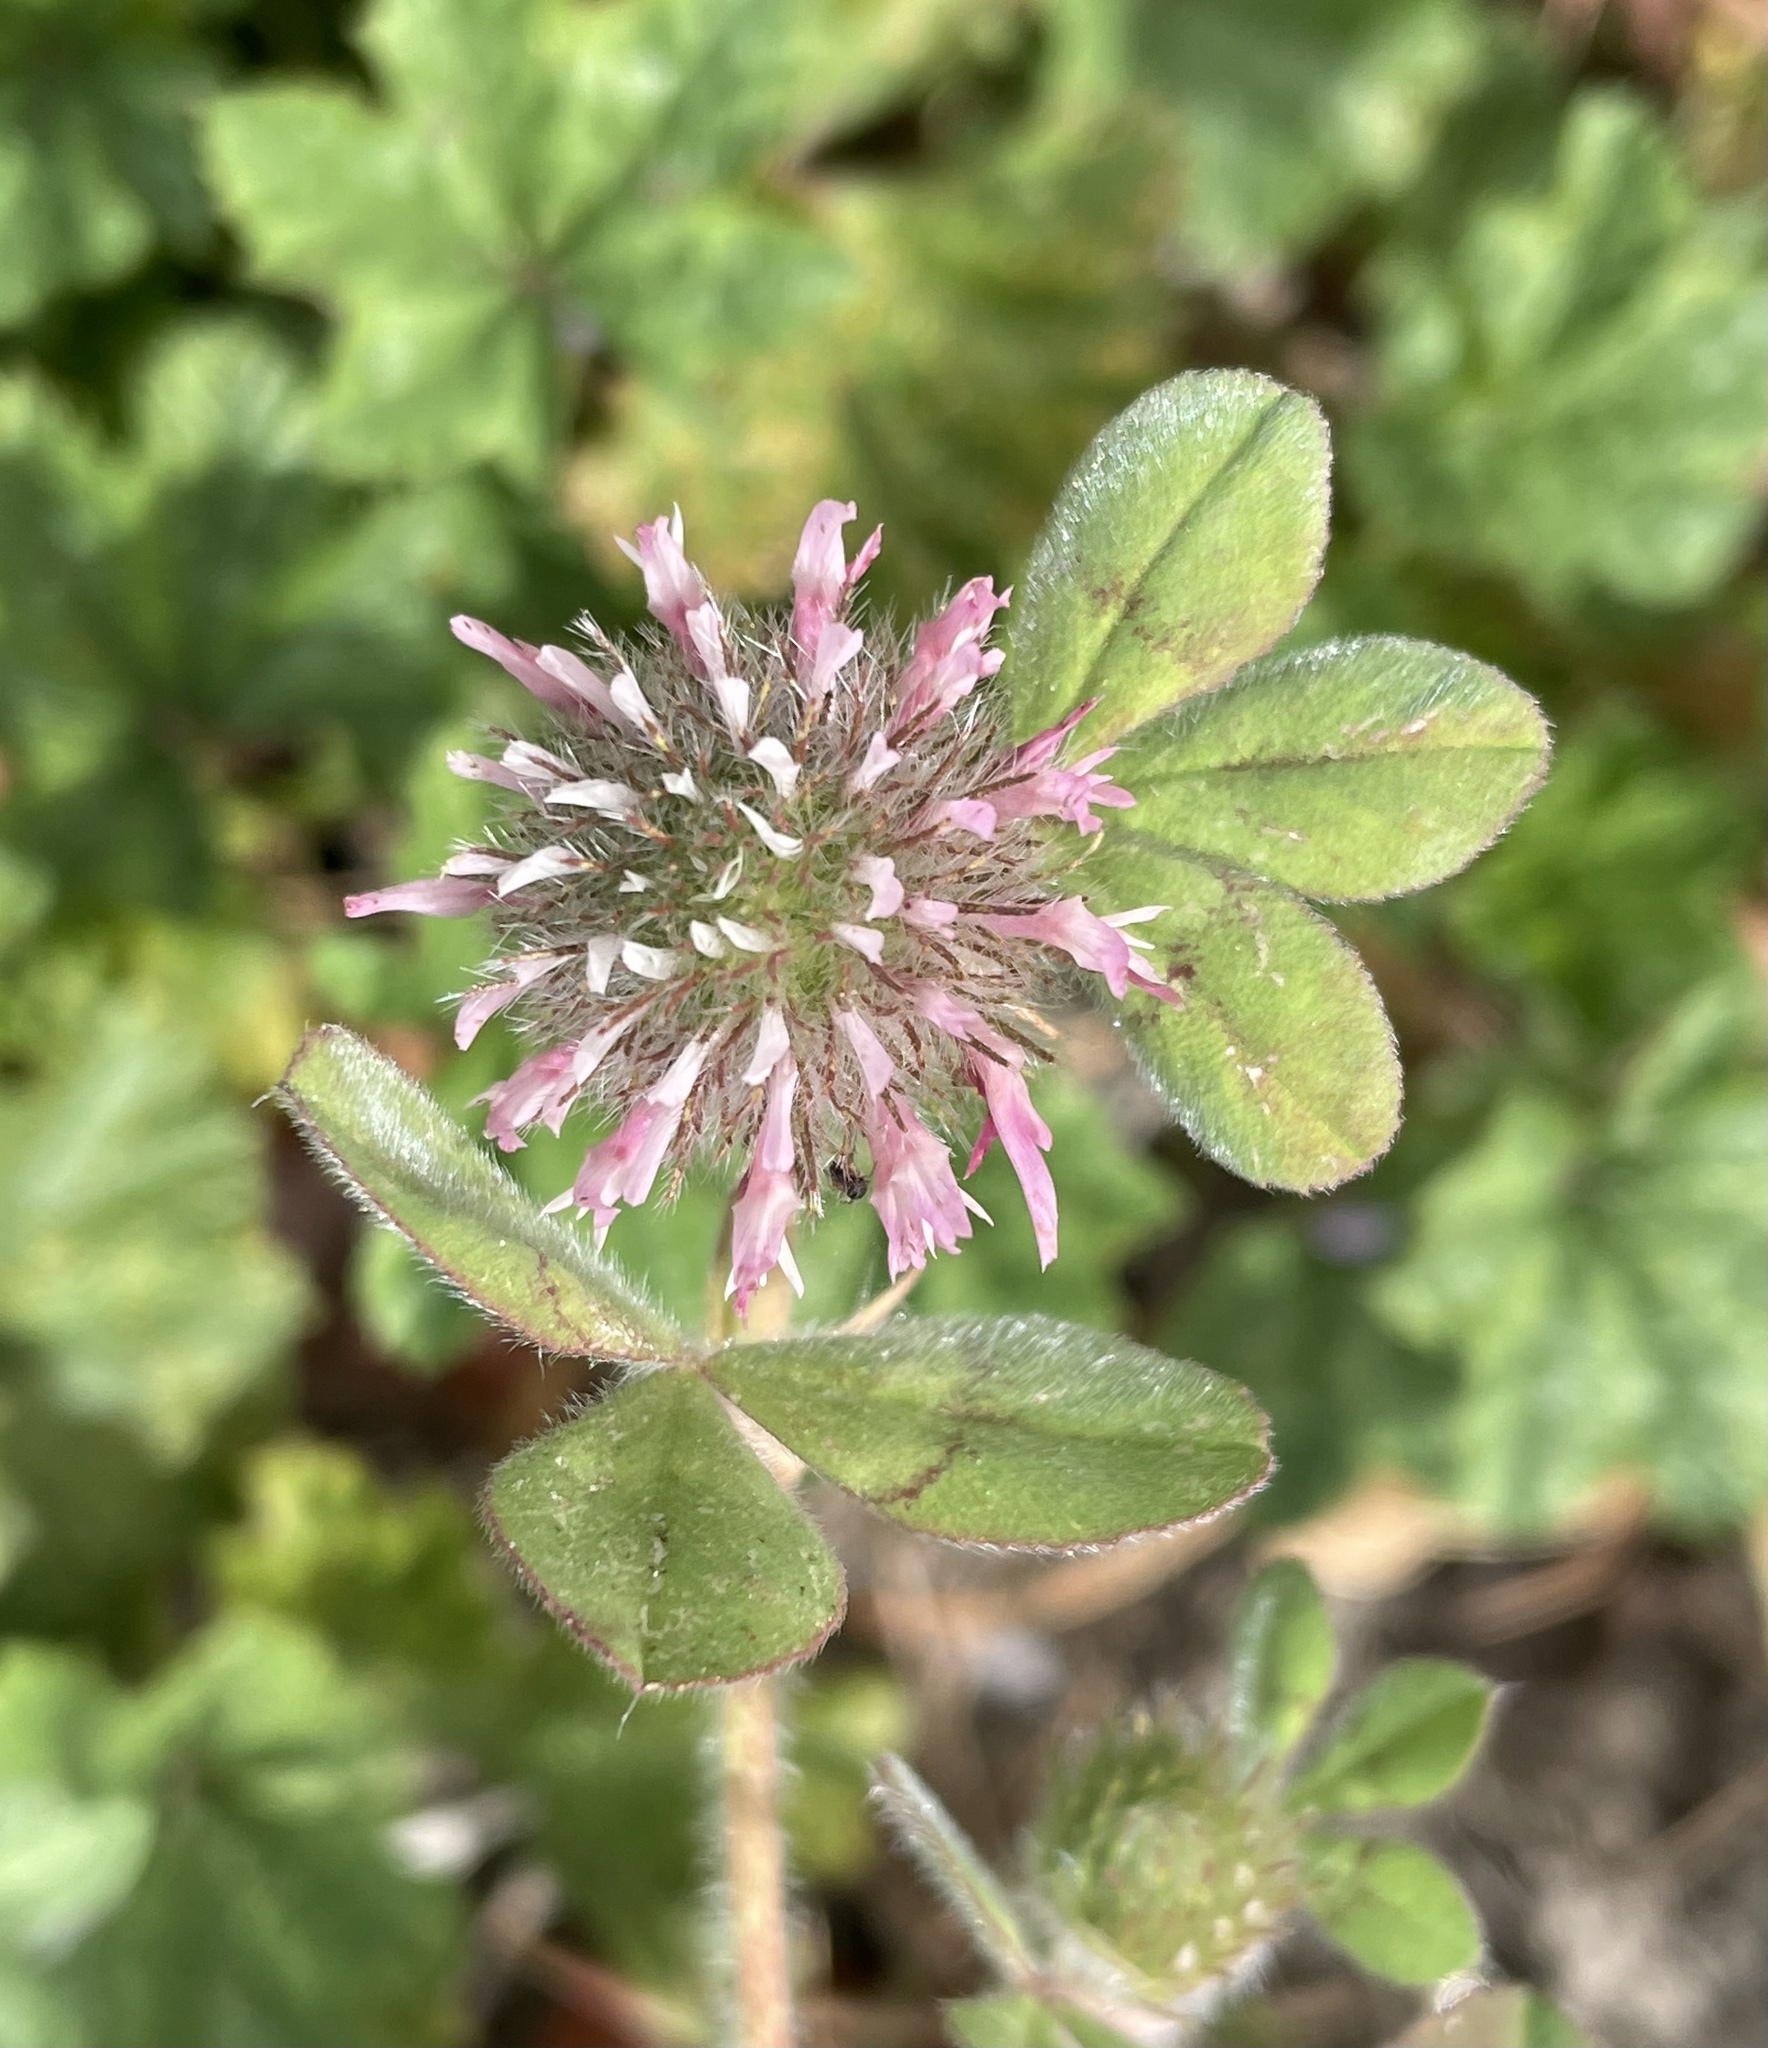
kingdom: Plantae
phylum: Tracheophyta
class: Magnoliopsida
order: Fabales
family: Fabaceae
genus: Trifolium
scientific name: Trifolium hirtum
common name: Rose clover
